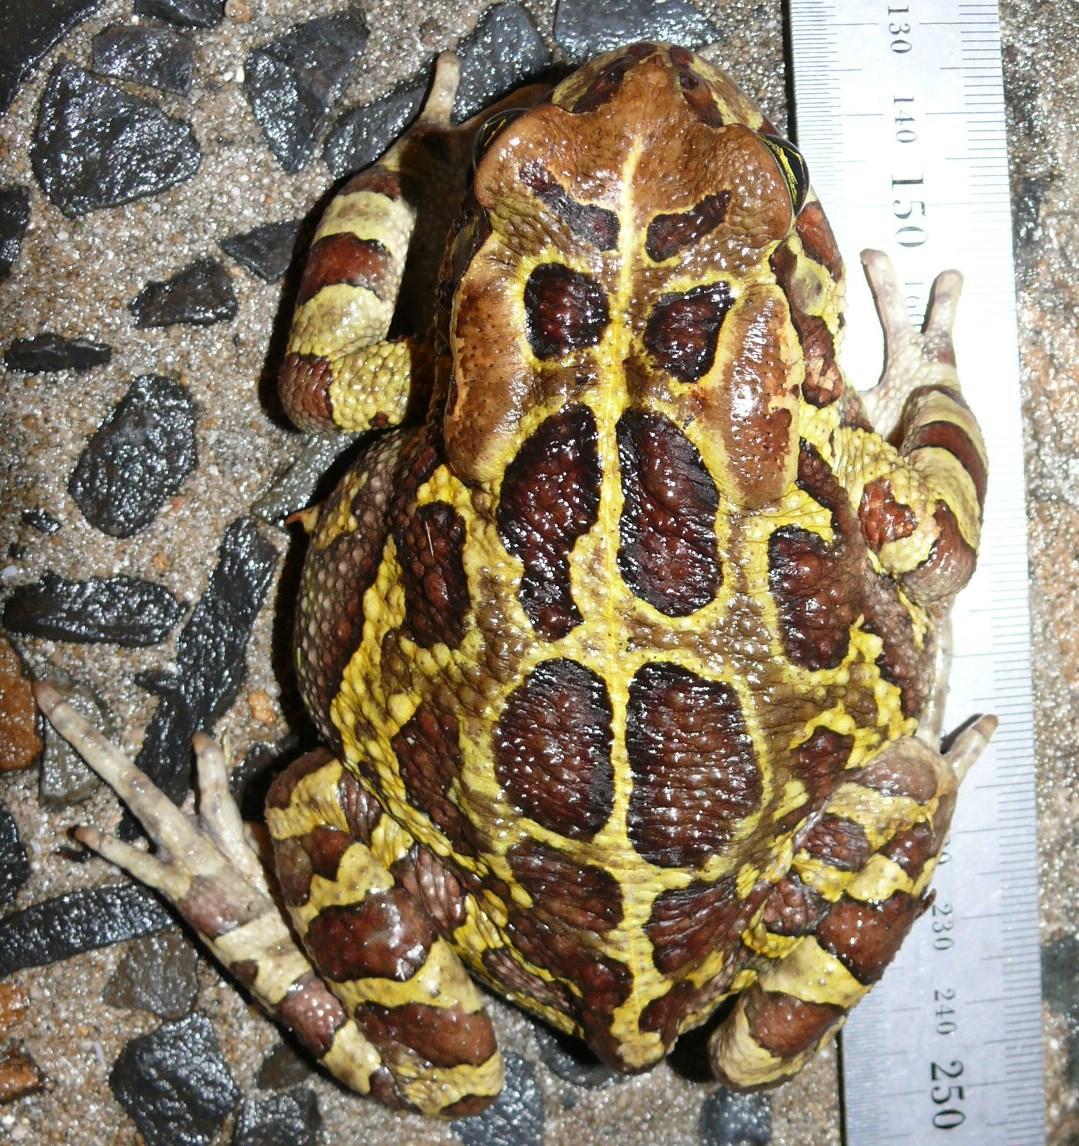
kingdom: Animalia
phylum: Chordata
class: Amphibia
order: Anura
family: Bufonidae
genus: Sclerophrys
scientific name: Sclerophrys pantherina
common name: Panther toad
